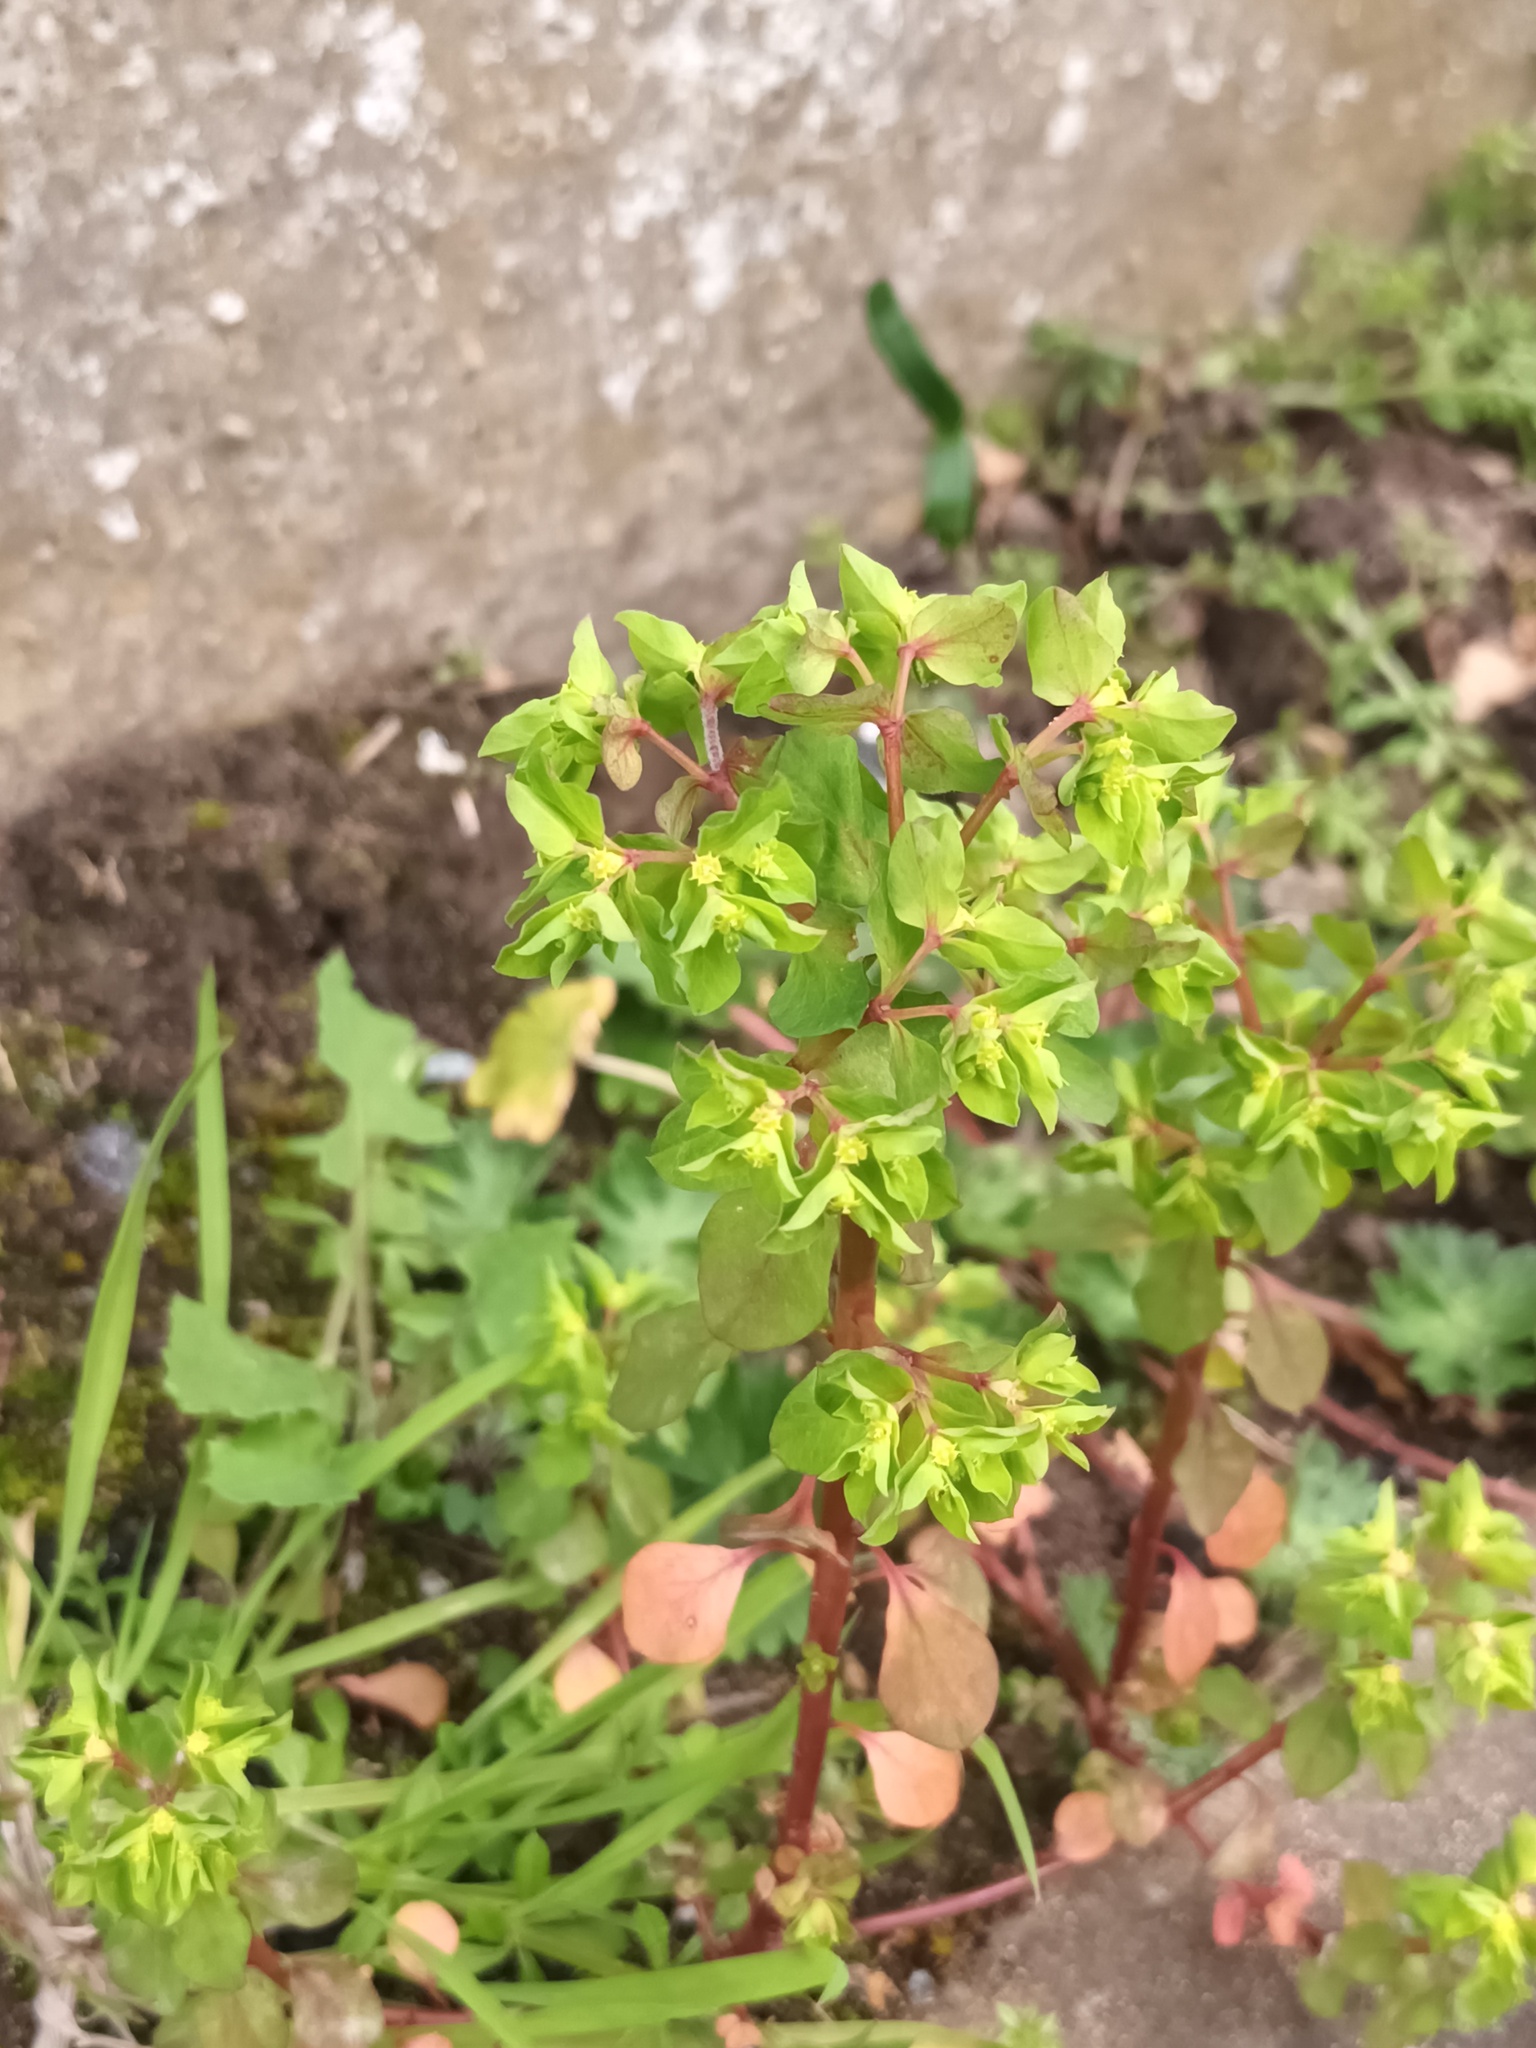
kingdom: Plantae
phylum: Tracheophyta
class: Magnoliopsida
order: Malpighiales
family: Euphorbiaceae
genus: Euphorbia
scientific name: Euphorbia peplus
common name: Petty spurge
